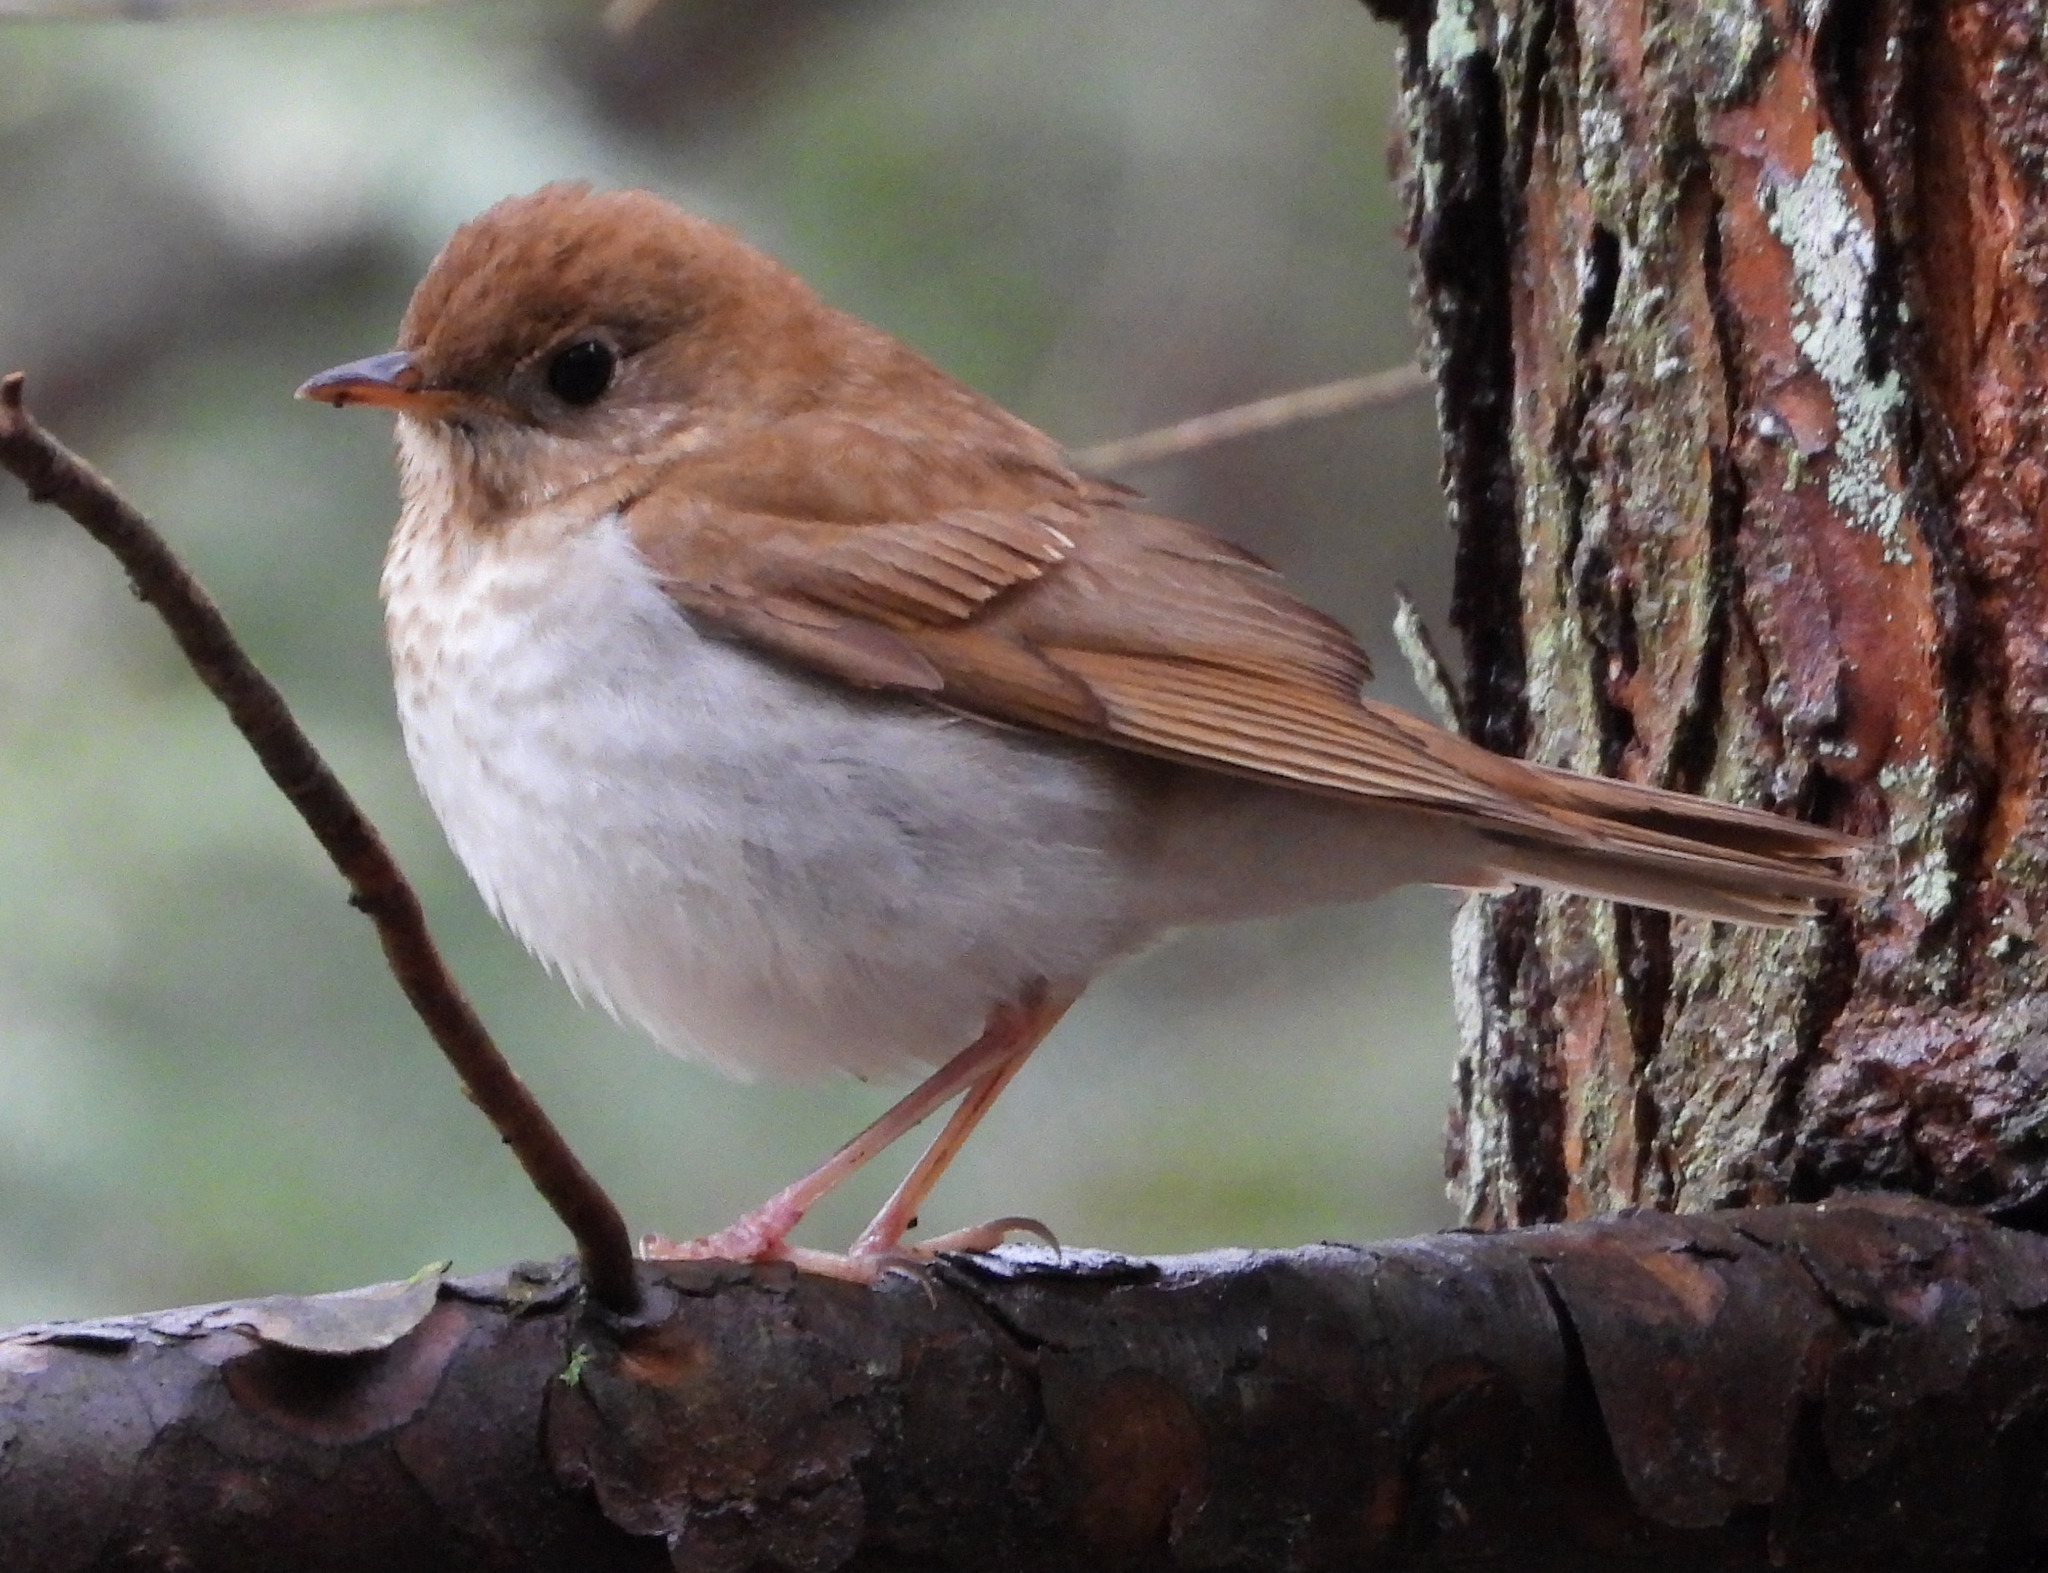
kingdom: Animalia
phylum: Chordata
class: Aves
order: Passeriformes
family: Turdidae
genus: Catharus
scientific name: Catharus fuscescens
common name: Veery
